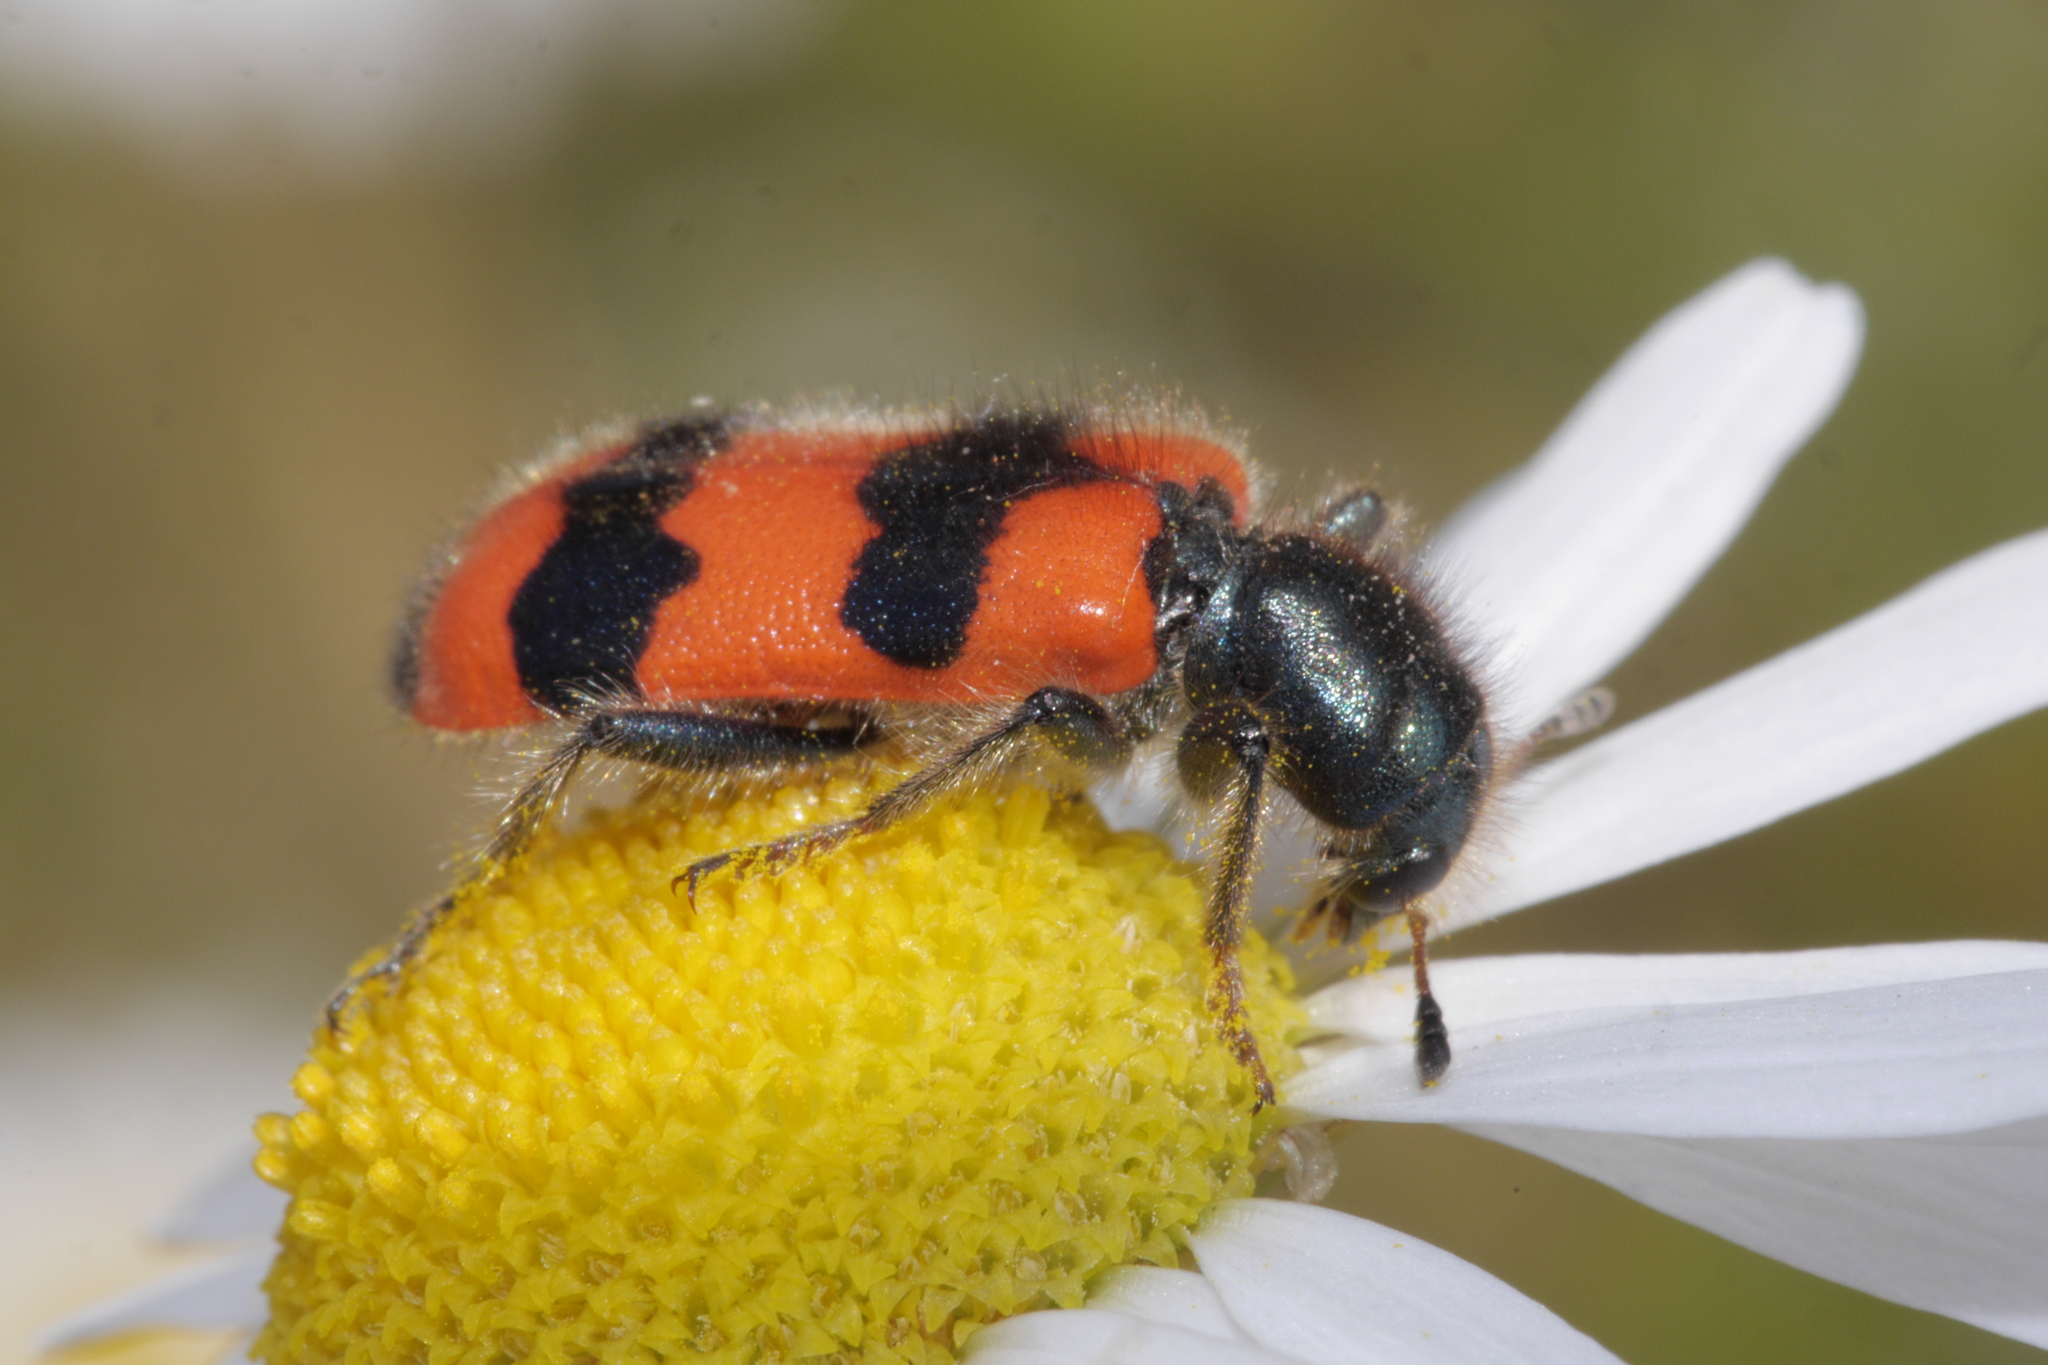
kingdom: Animalia
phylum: Arthropoda
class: Insecta
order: Coleoptera
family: Cleridae
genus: Trichodes
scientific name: Trichodes apiarius
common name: Bee-eating beetle
